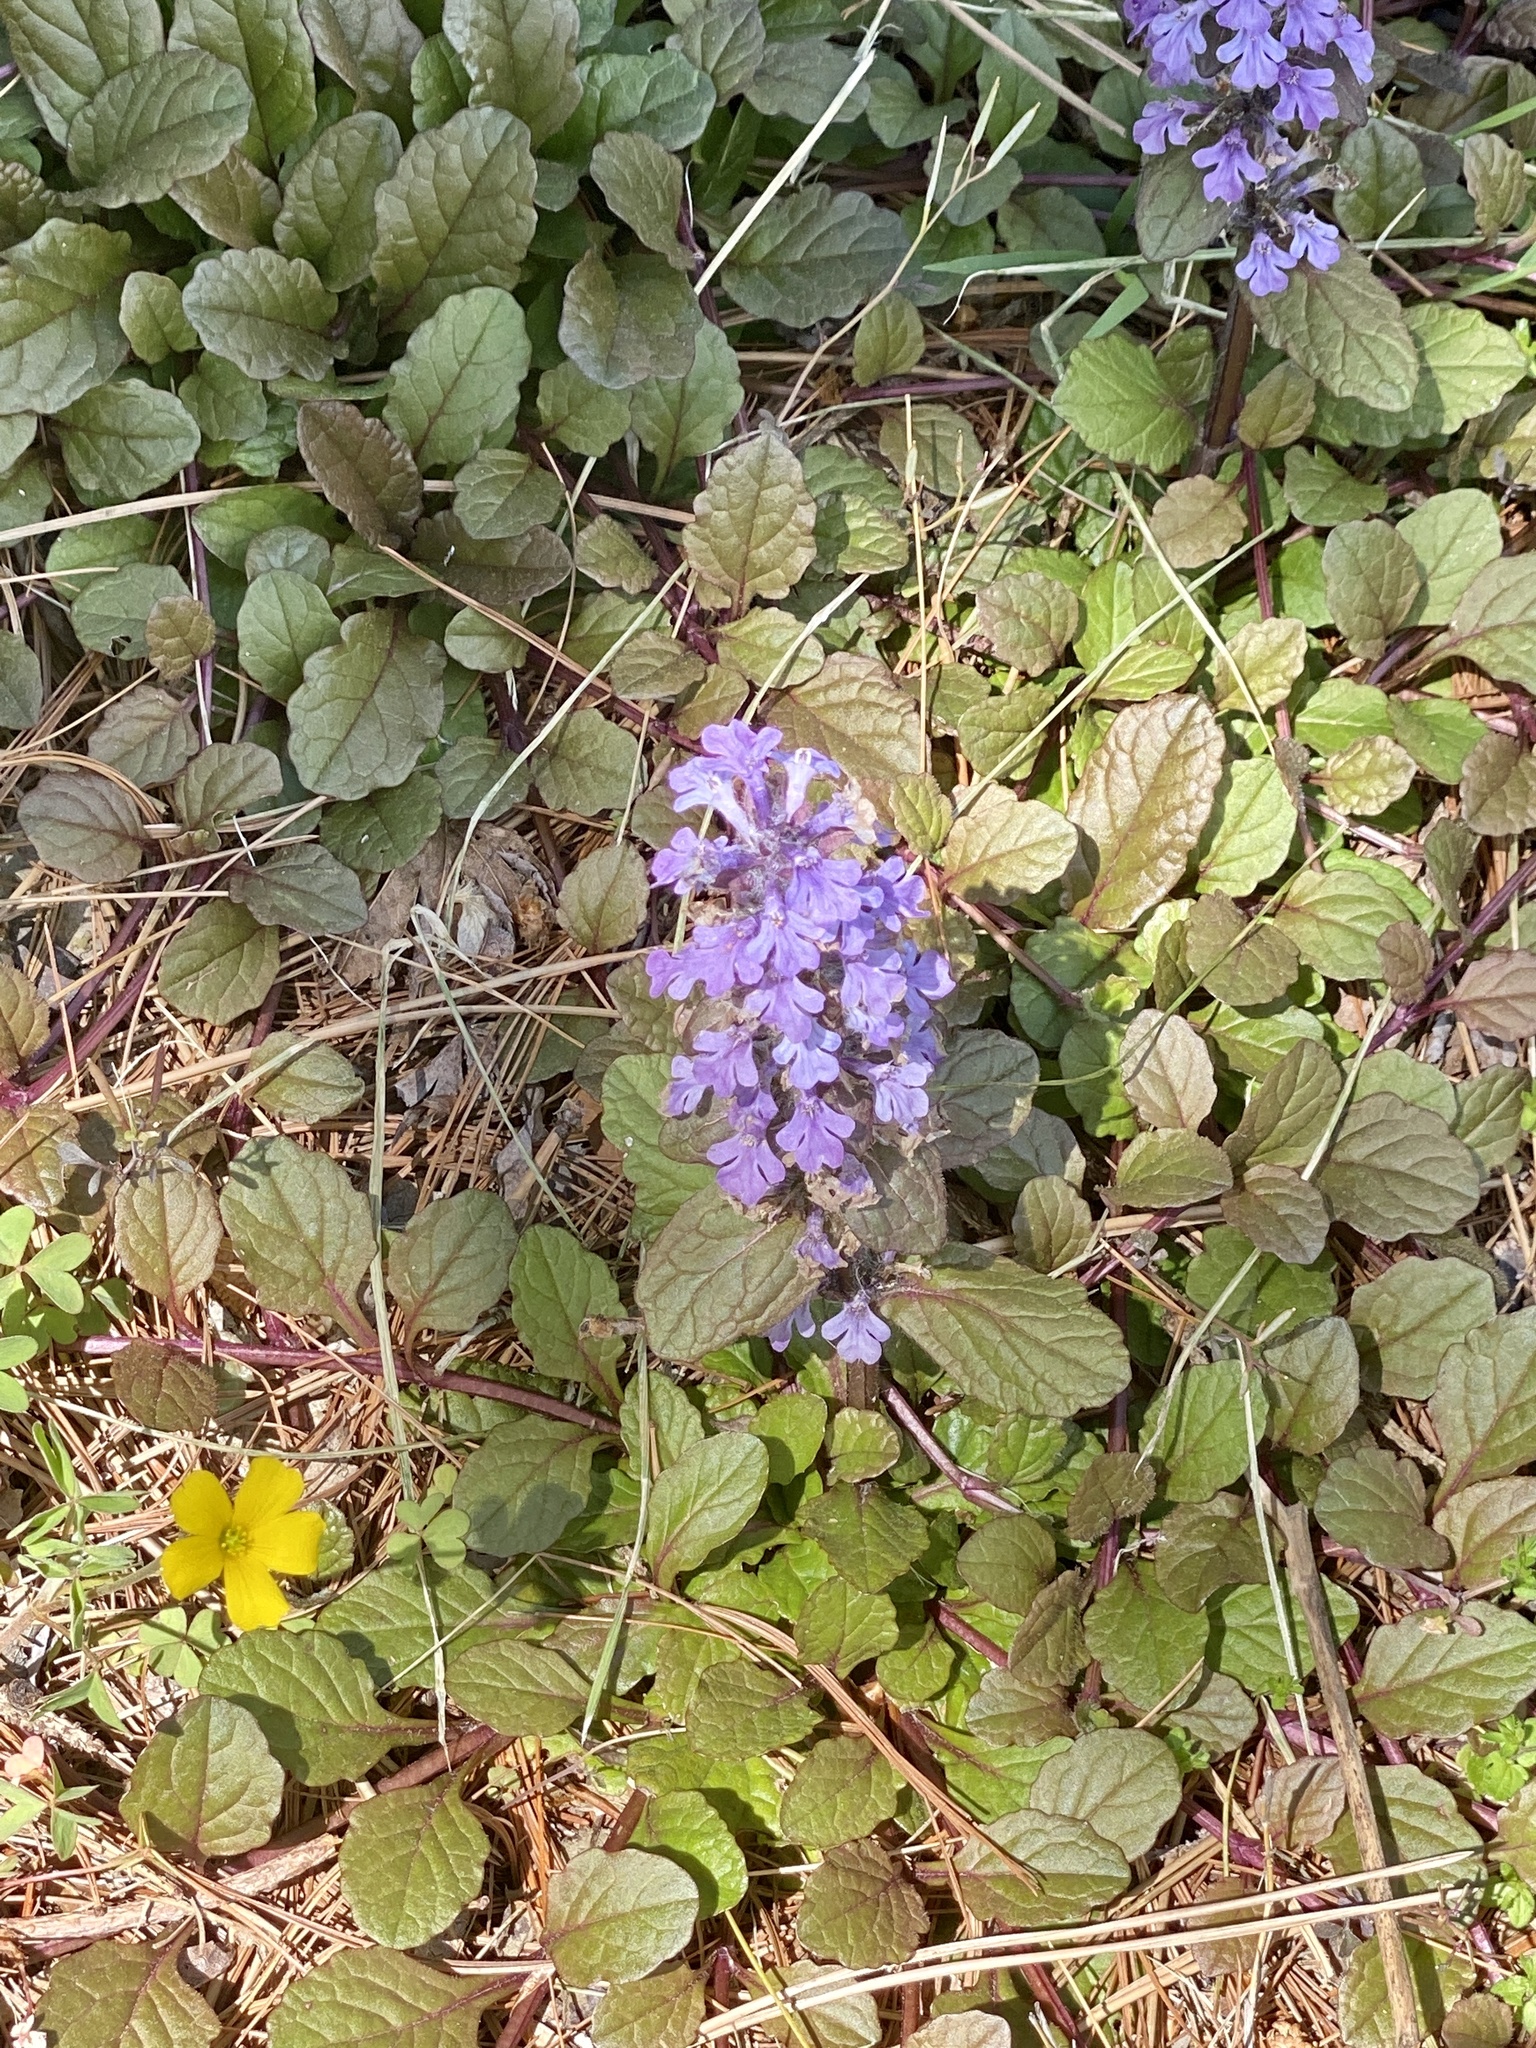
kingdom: Plantae
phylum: Tracheophyta
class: Magnoliopsida
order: Lamiales
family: Lamiaceae
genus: Ajuga
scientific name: Ajuga reptans
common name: Bugle
